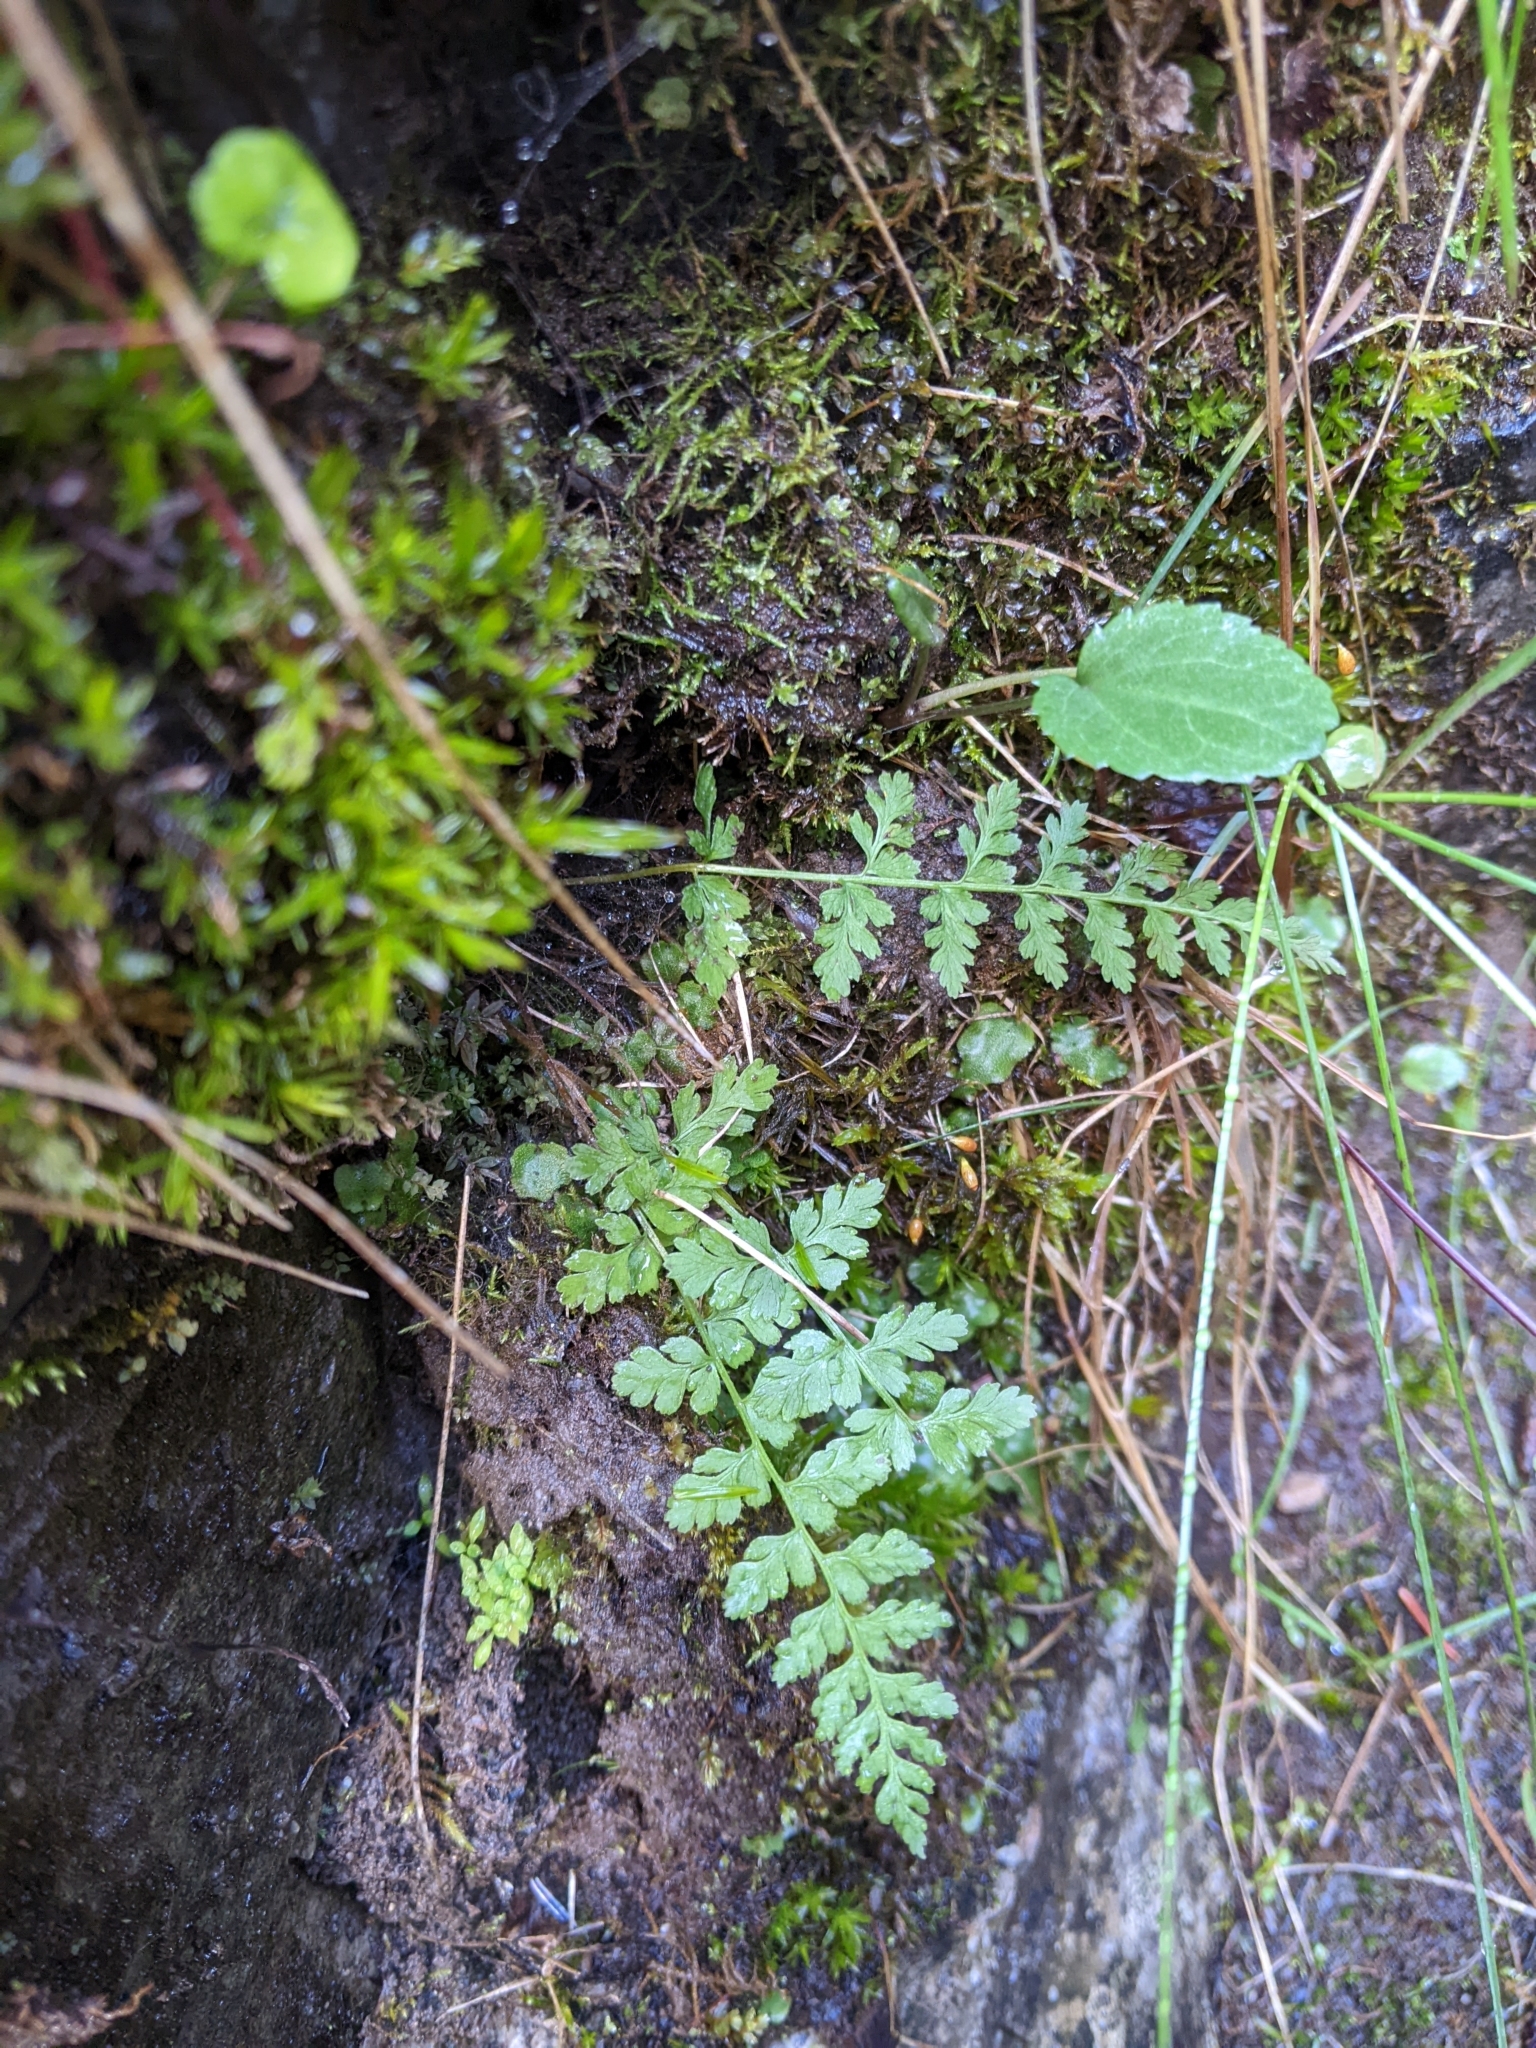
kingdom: Plantae
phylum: Tracheophyta
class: Polypodiopsida
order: Polypodiales
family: Cystopteridaceae
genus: Cystopteris
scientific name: Cystopteris fragilis
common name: Brittle bladder fern
